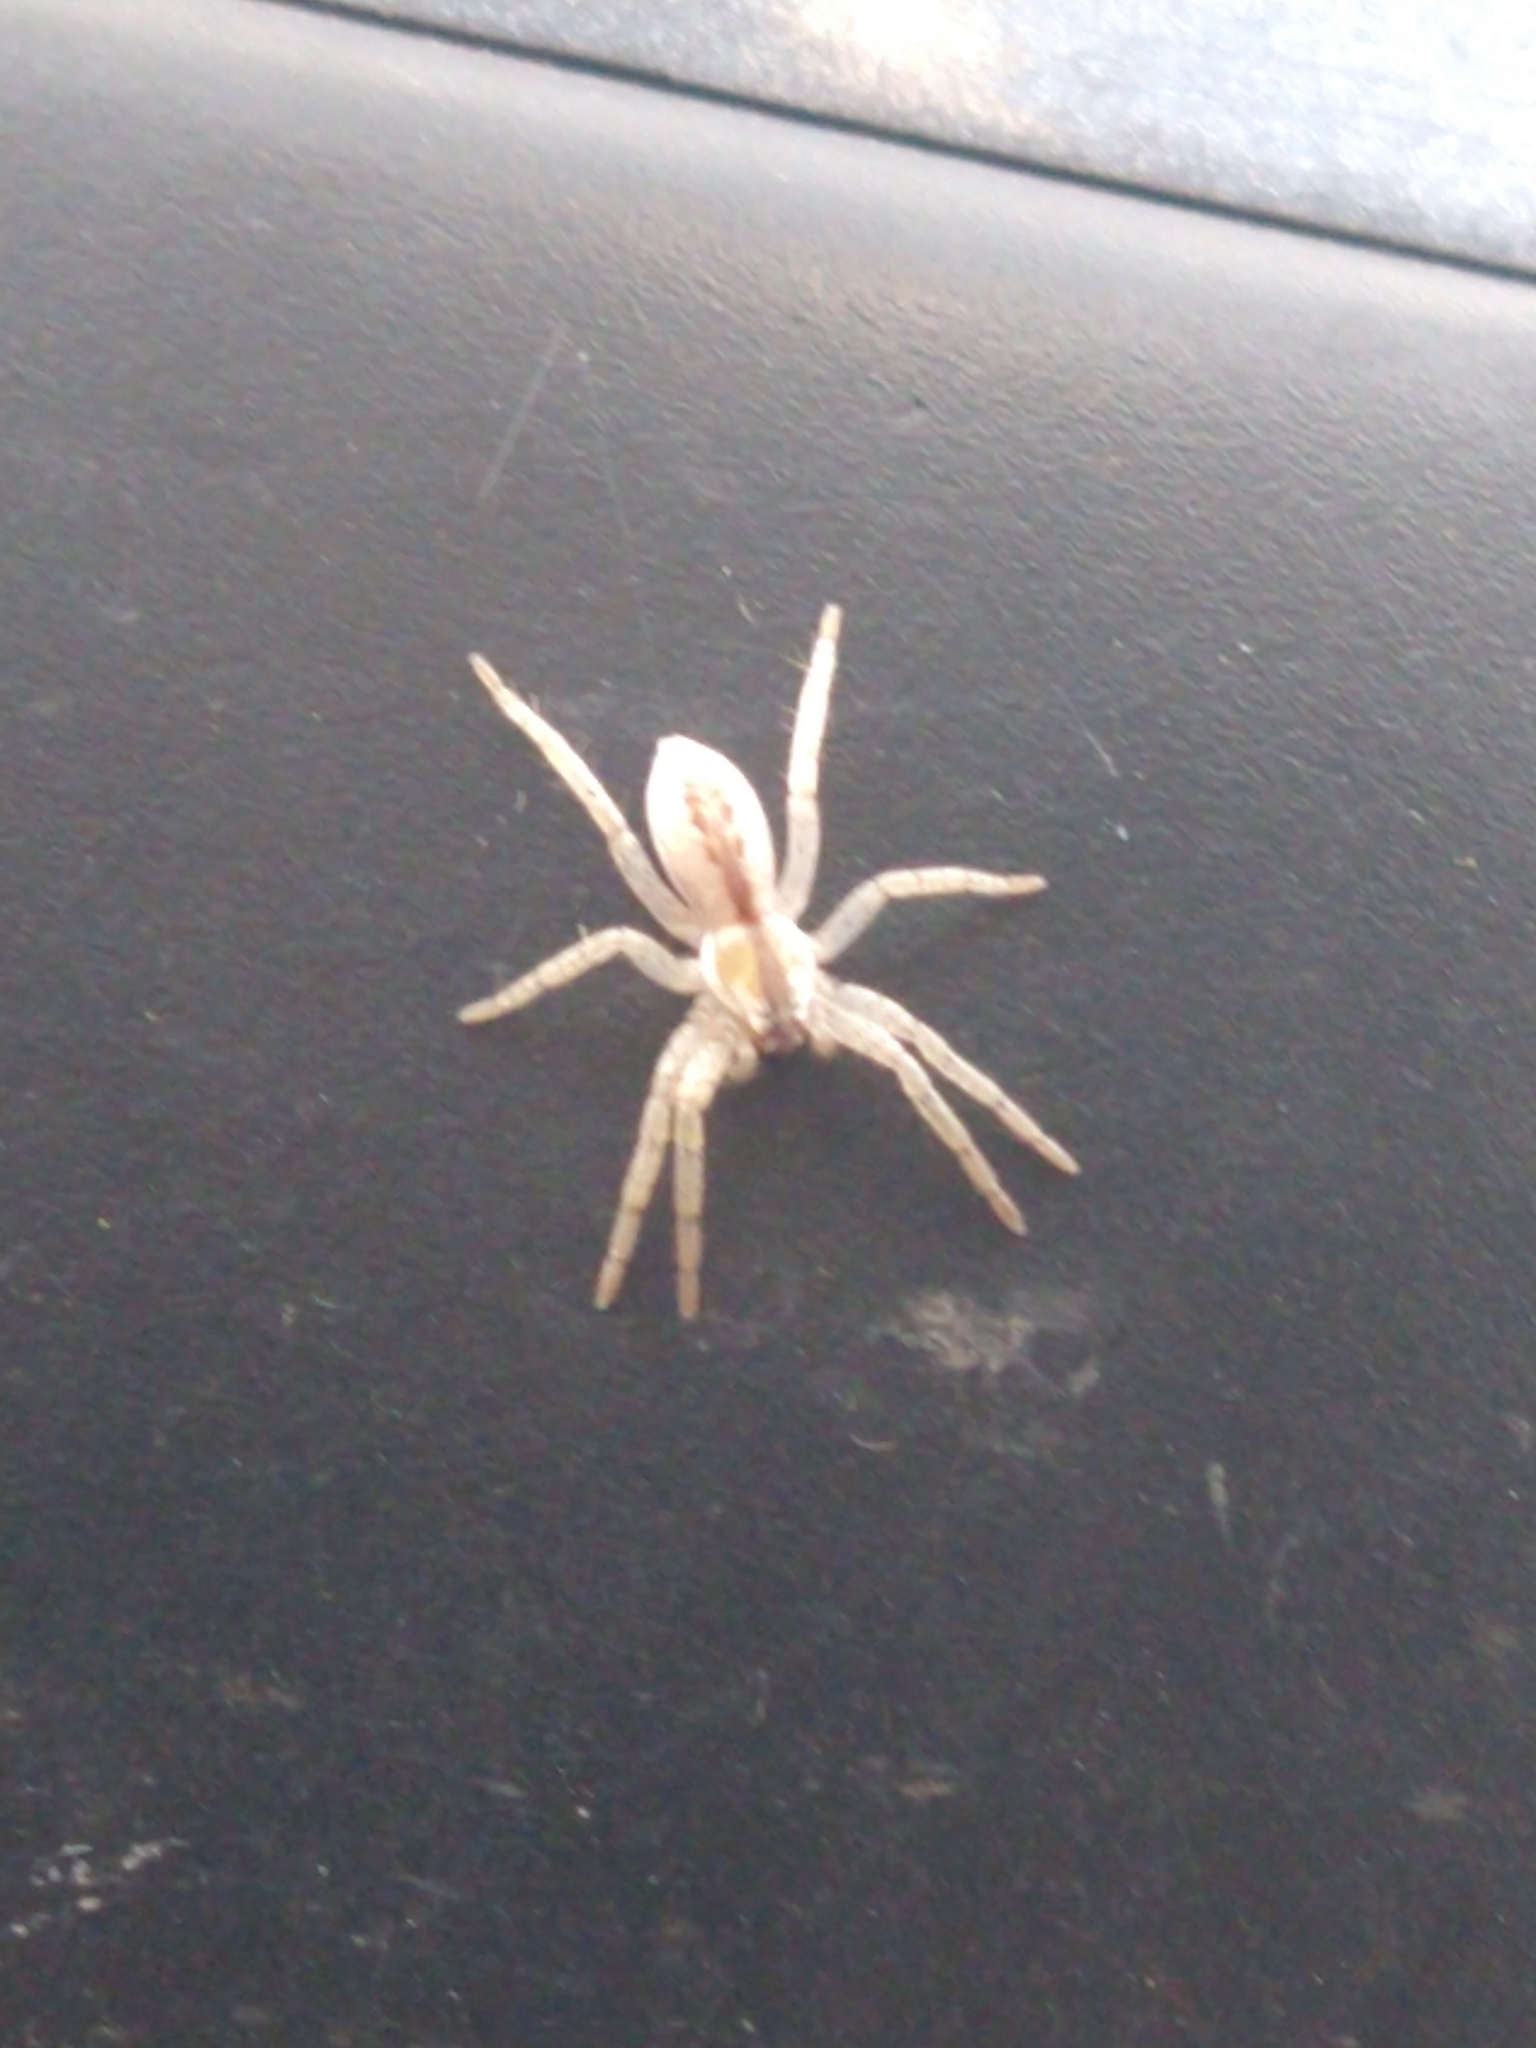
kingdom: Animalia
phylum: Arthropoda
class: Arachnida
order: Araneae
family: Anyphaenidae
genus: Arachosia
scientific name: Arachosia praesignis
